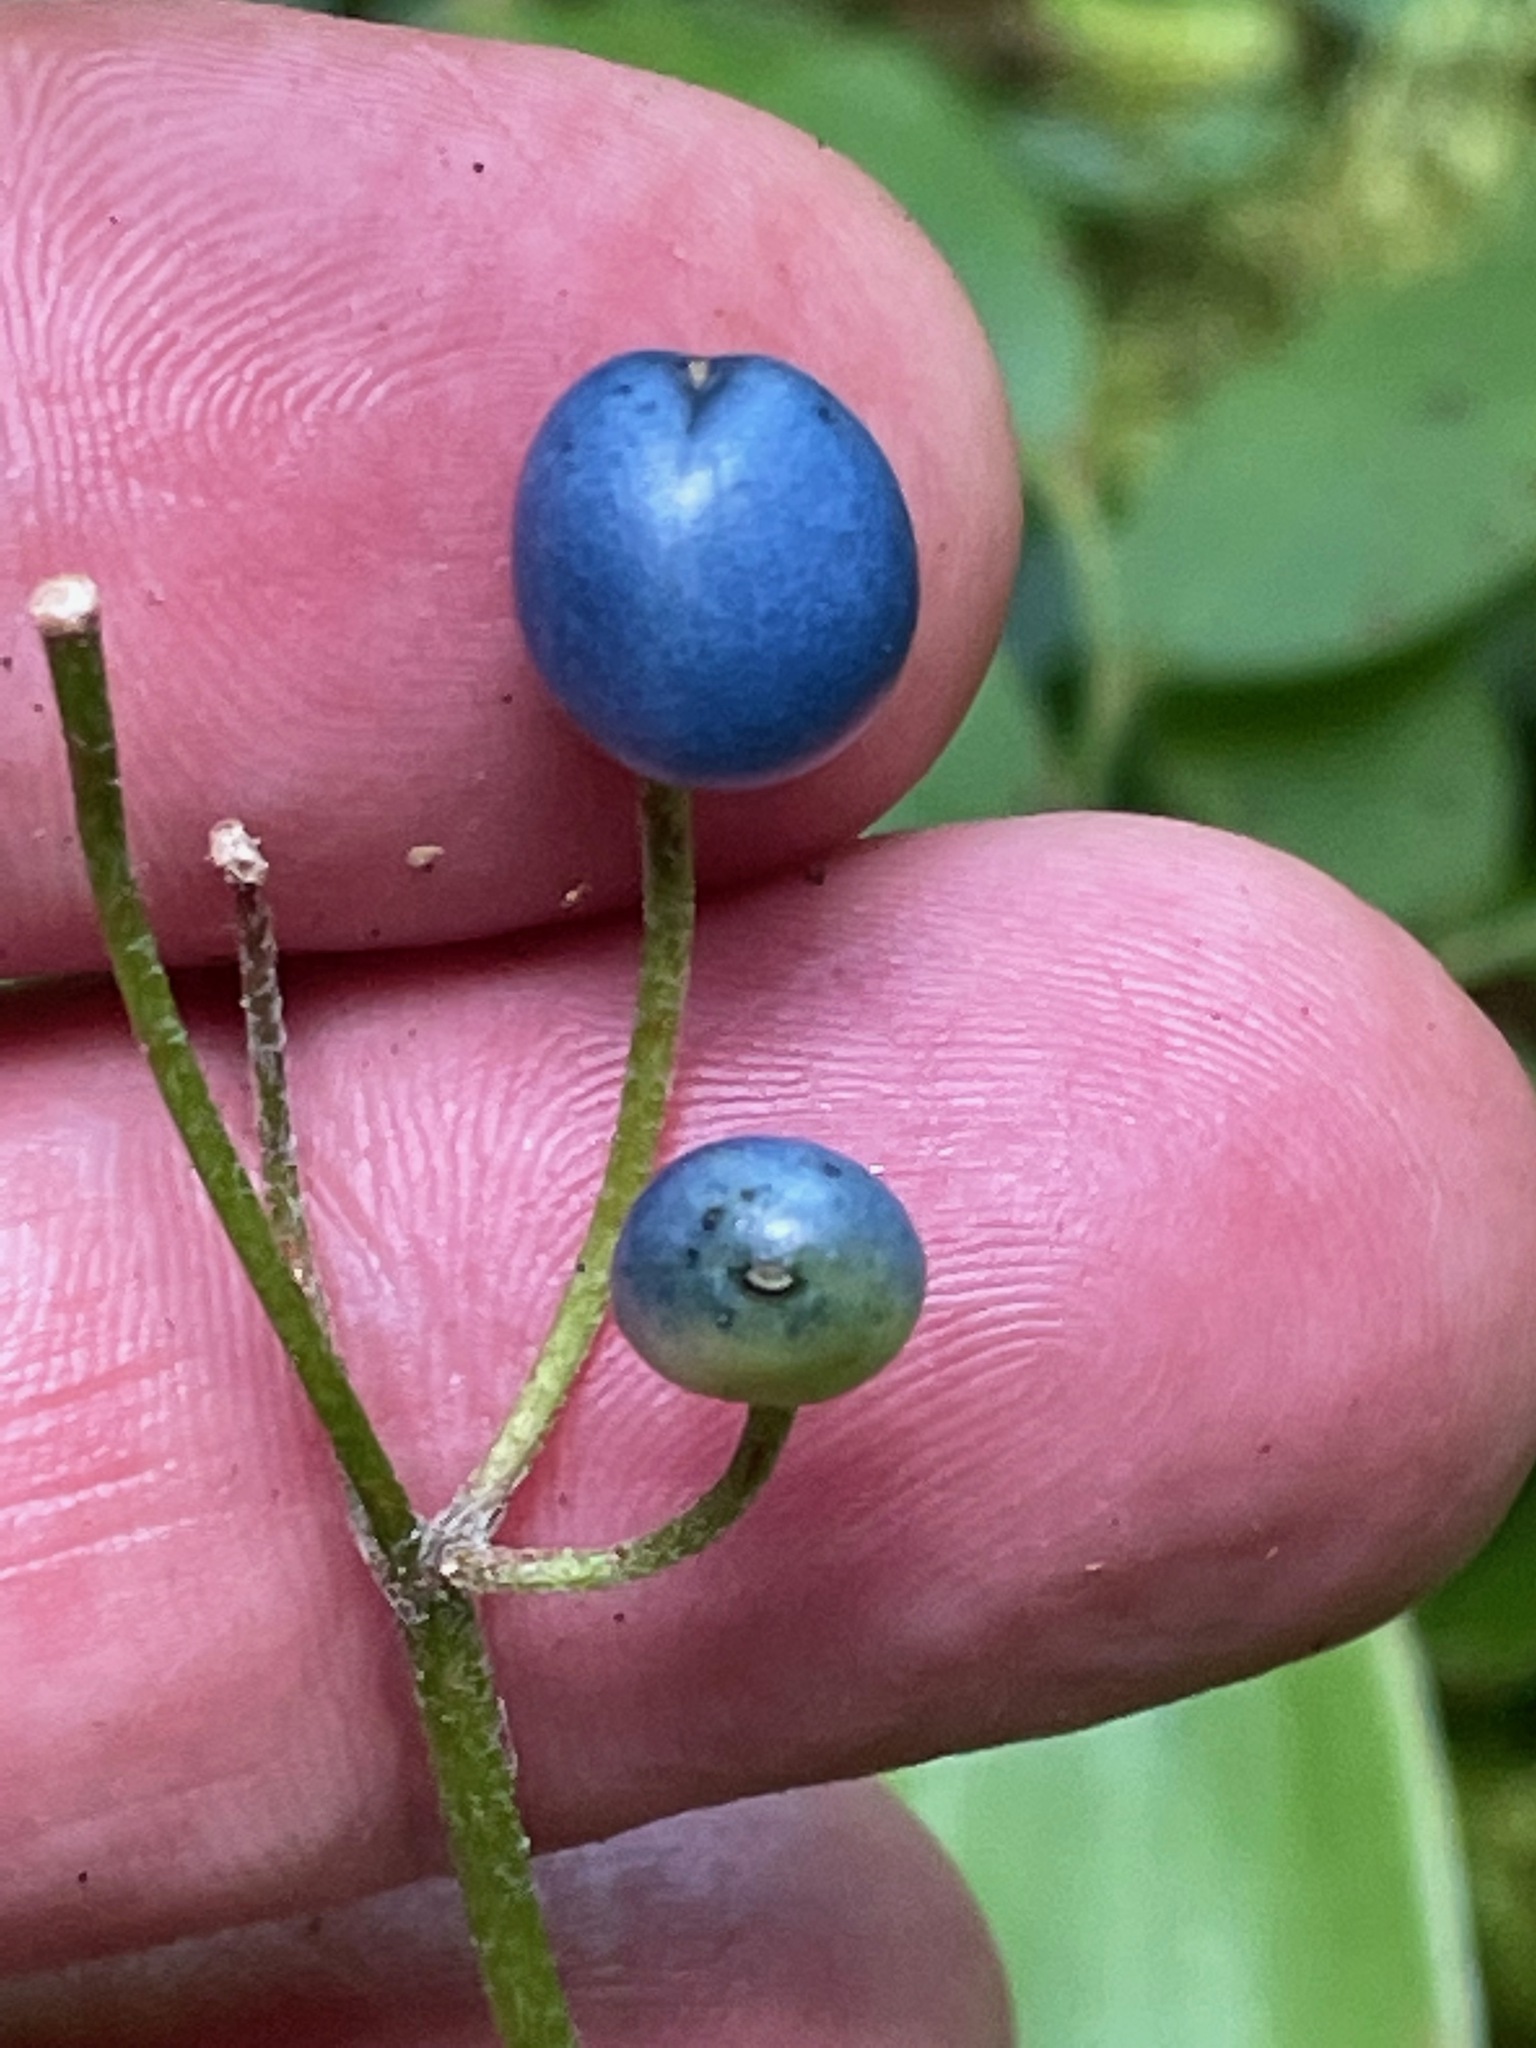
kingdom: Plantae
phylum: Tracheophyta
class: Liliopsida
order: Liliales
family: Liliaceae
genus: Clintonia
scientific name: Clintonia borealis
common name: Yellow clintonia
